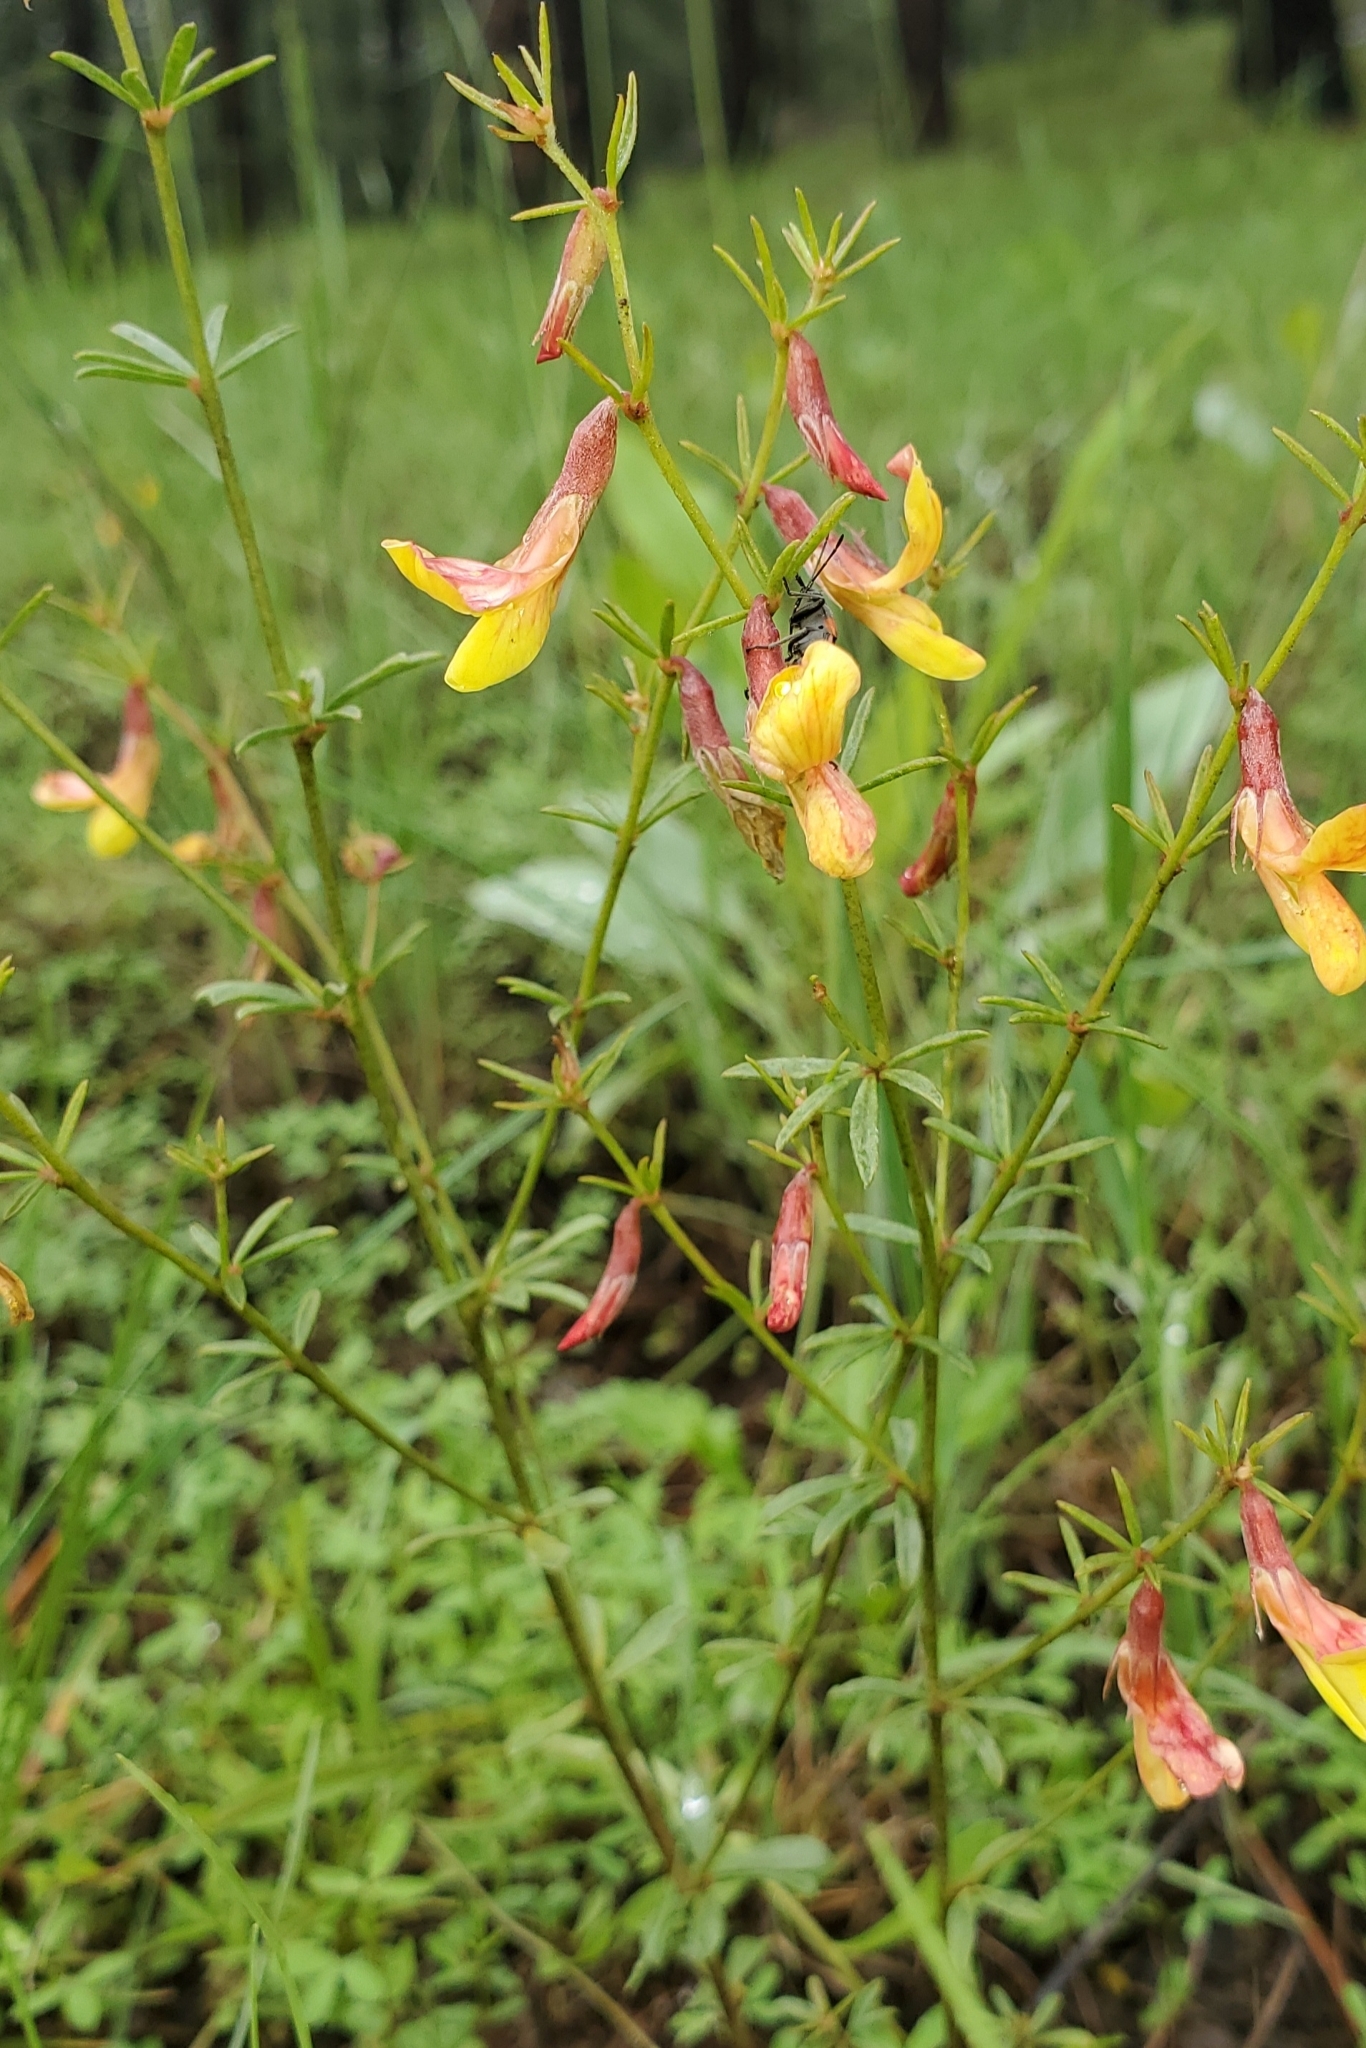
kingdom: Plantae
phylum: Tracheophyta
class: Magnoliopsida
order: Fabales
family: Fabaceae
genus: Acmispon
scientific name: Acmispon wrightii
